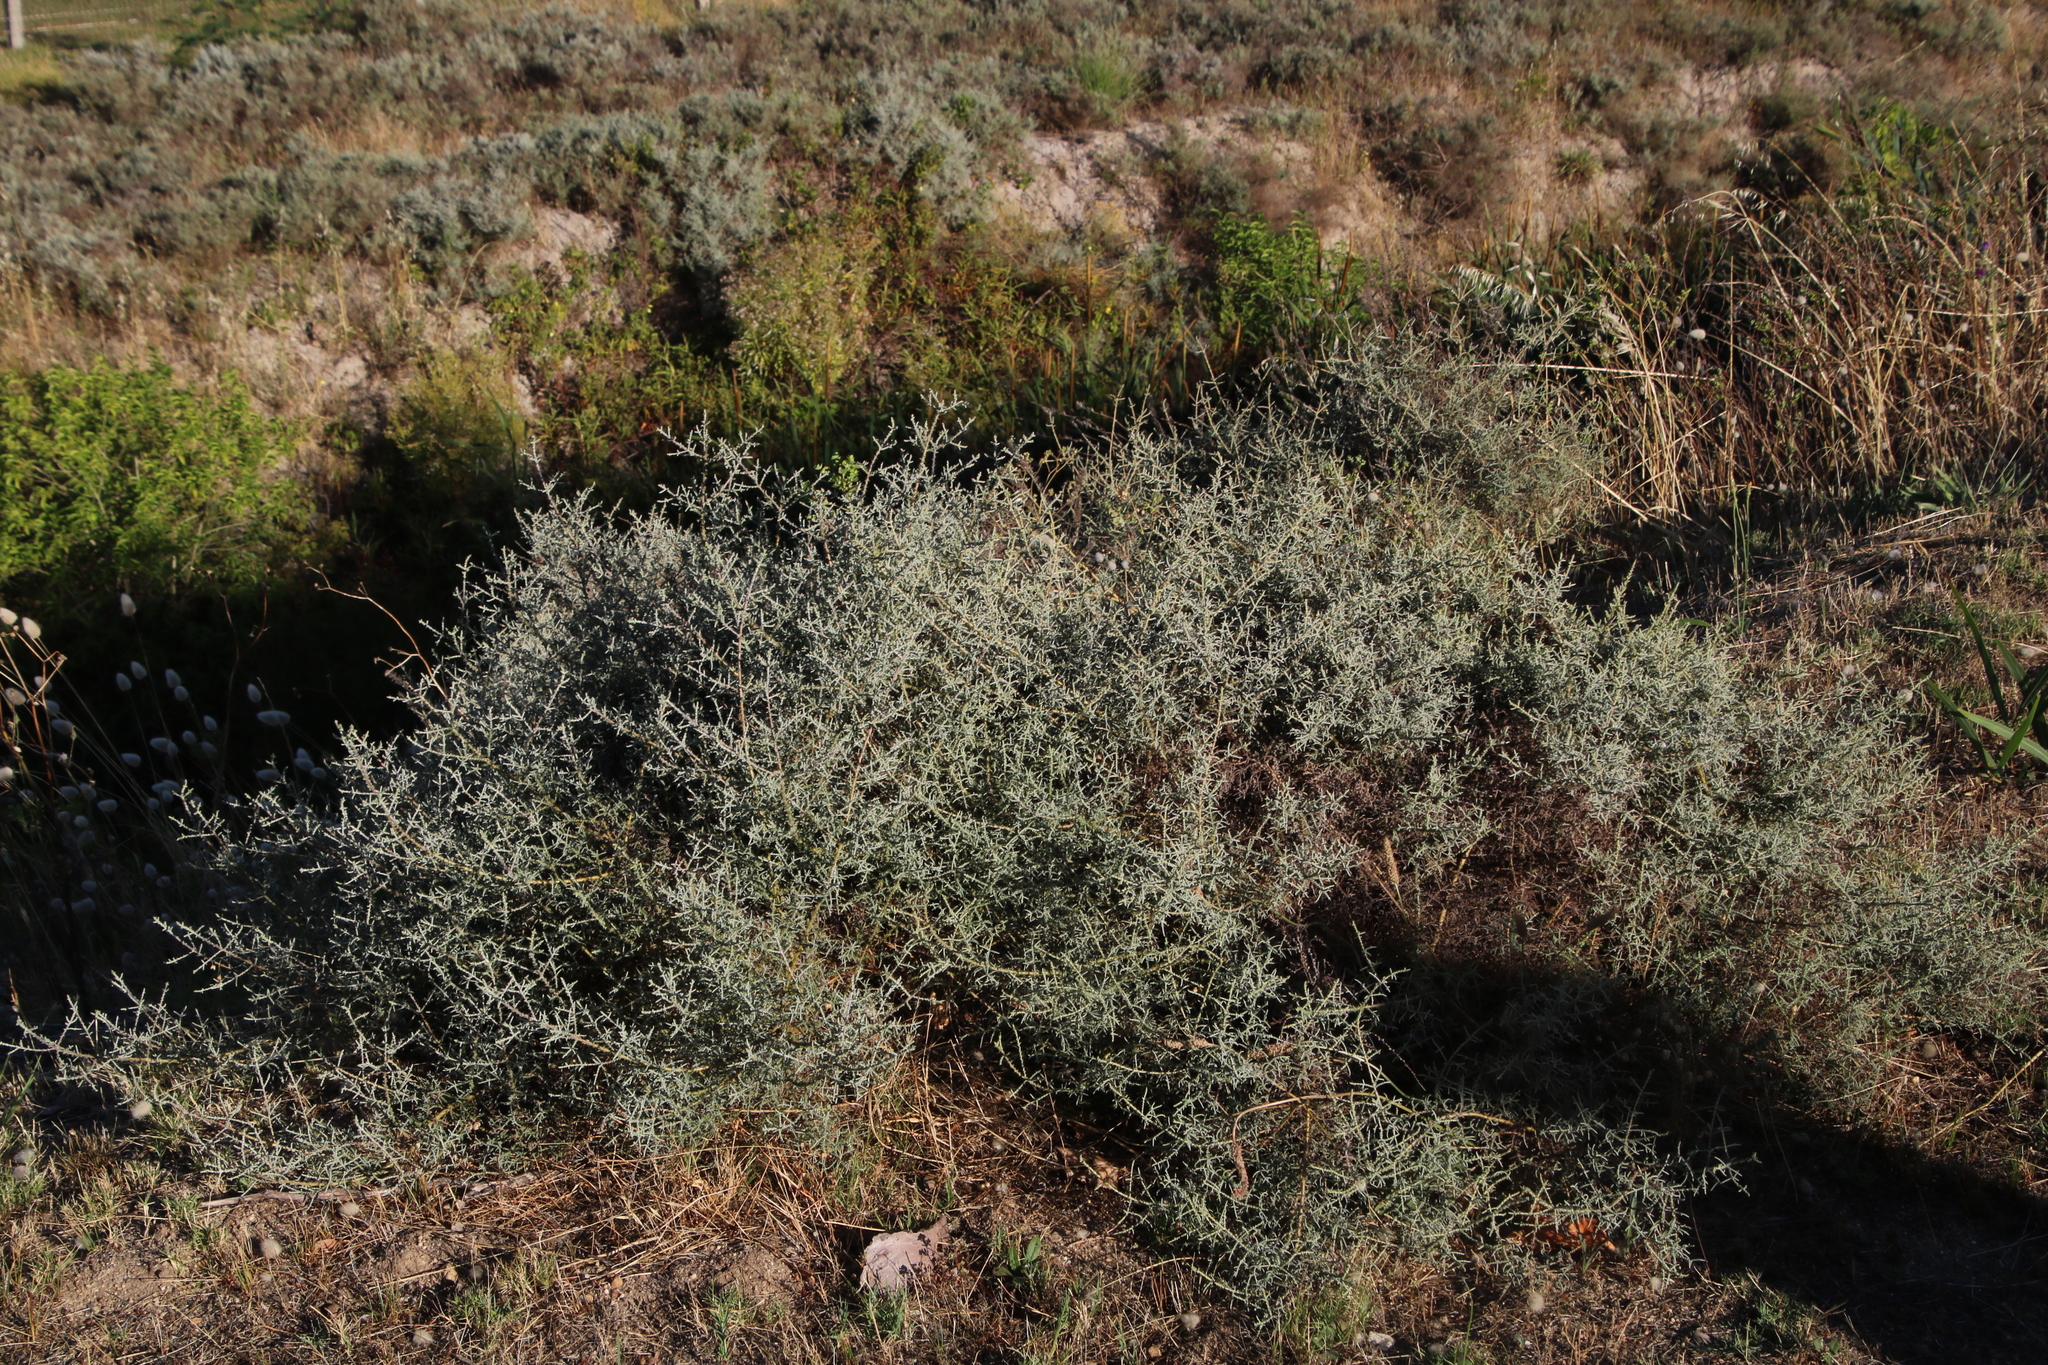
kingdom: Plantae
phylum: Tracheophyta
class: Magnoliopsida
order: Asterales
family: Asteraceae
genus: Seriphium
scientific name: Seriphium plumosum
